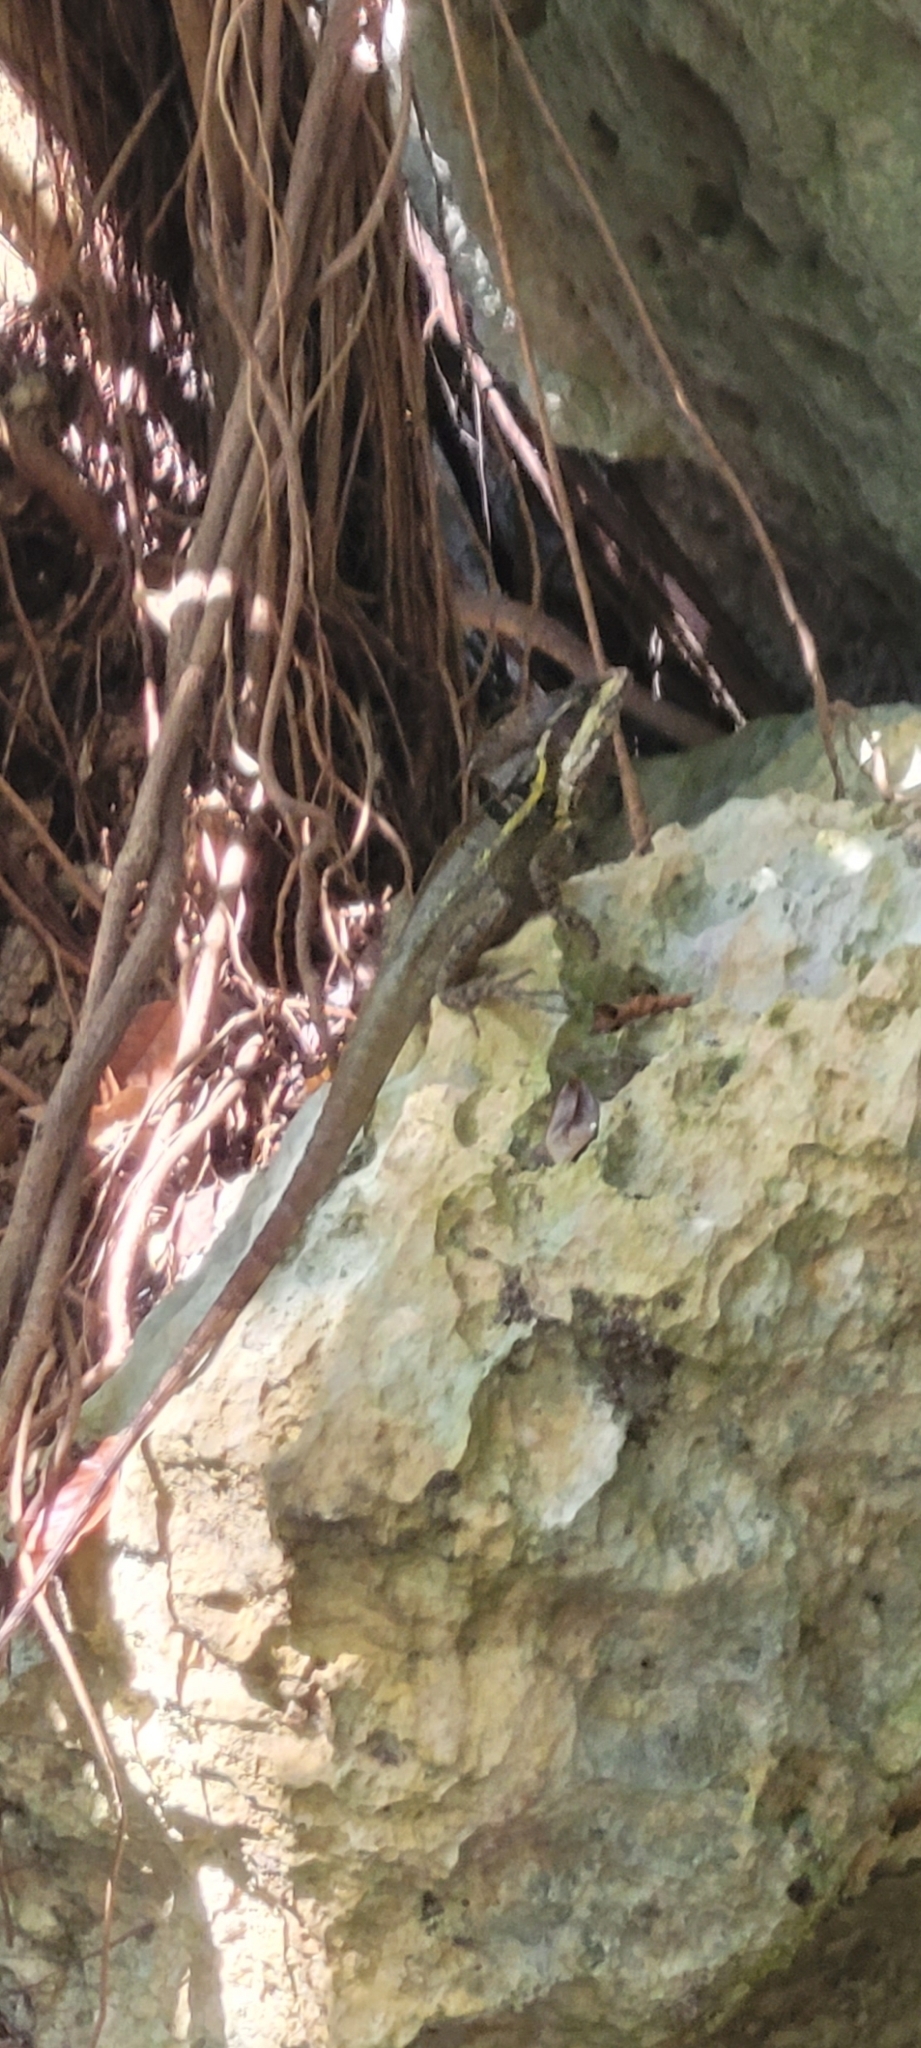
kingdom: Animalia
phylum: Chordata
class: Squamata
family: Corytophanidae
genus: Basiliscus
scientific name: Basiliscus vittatus
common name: Brown basilisk
